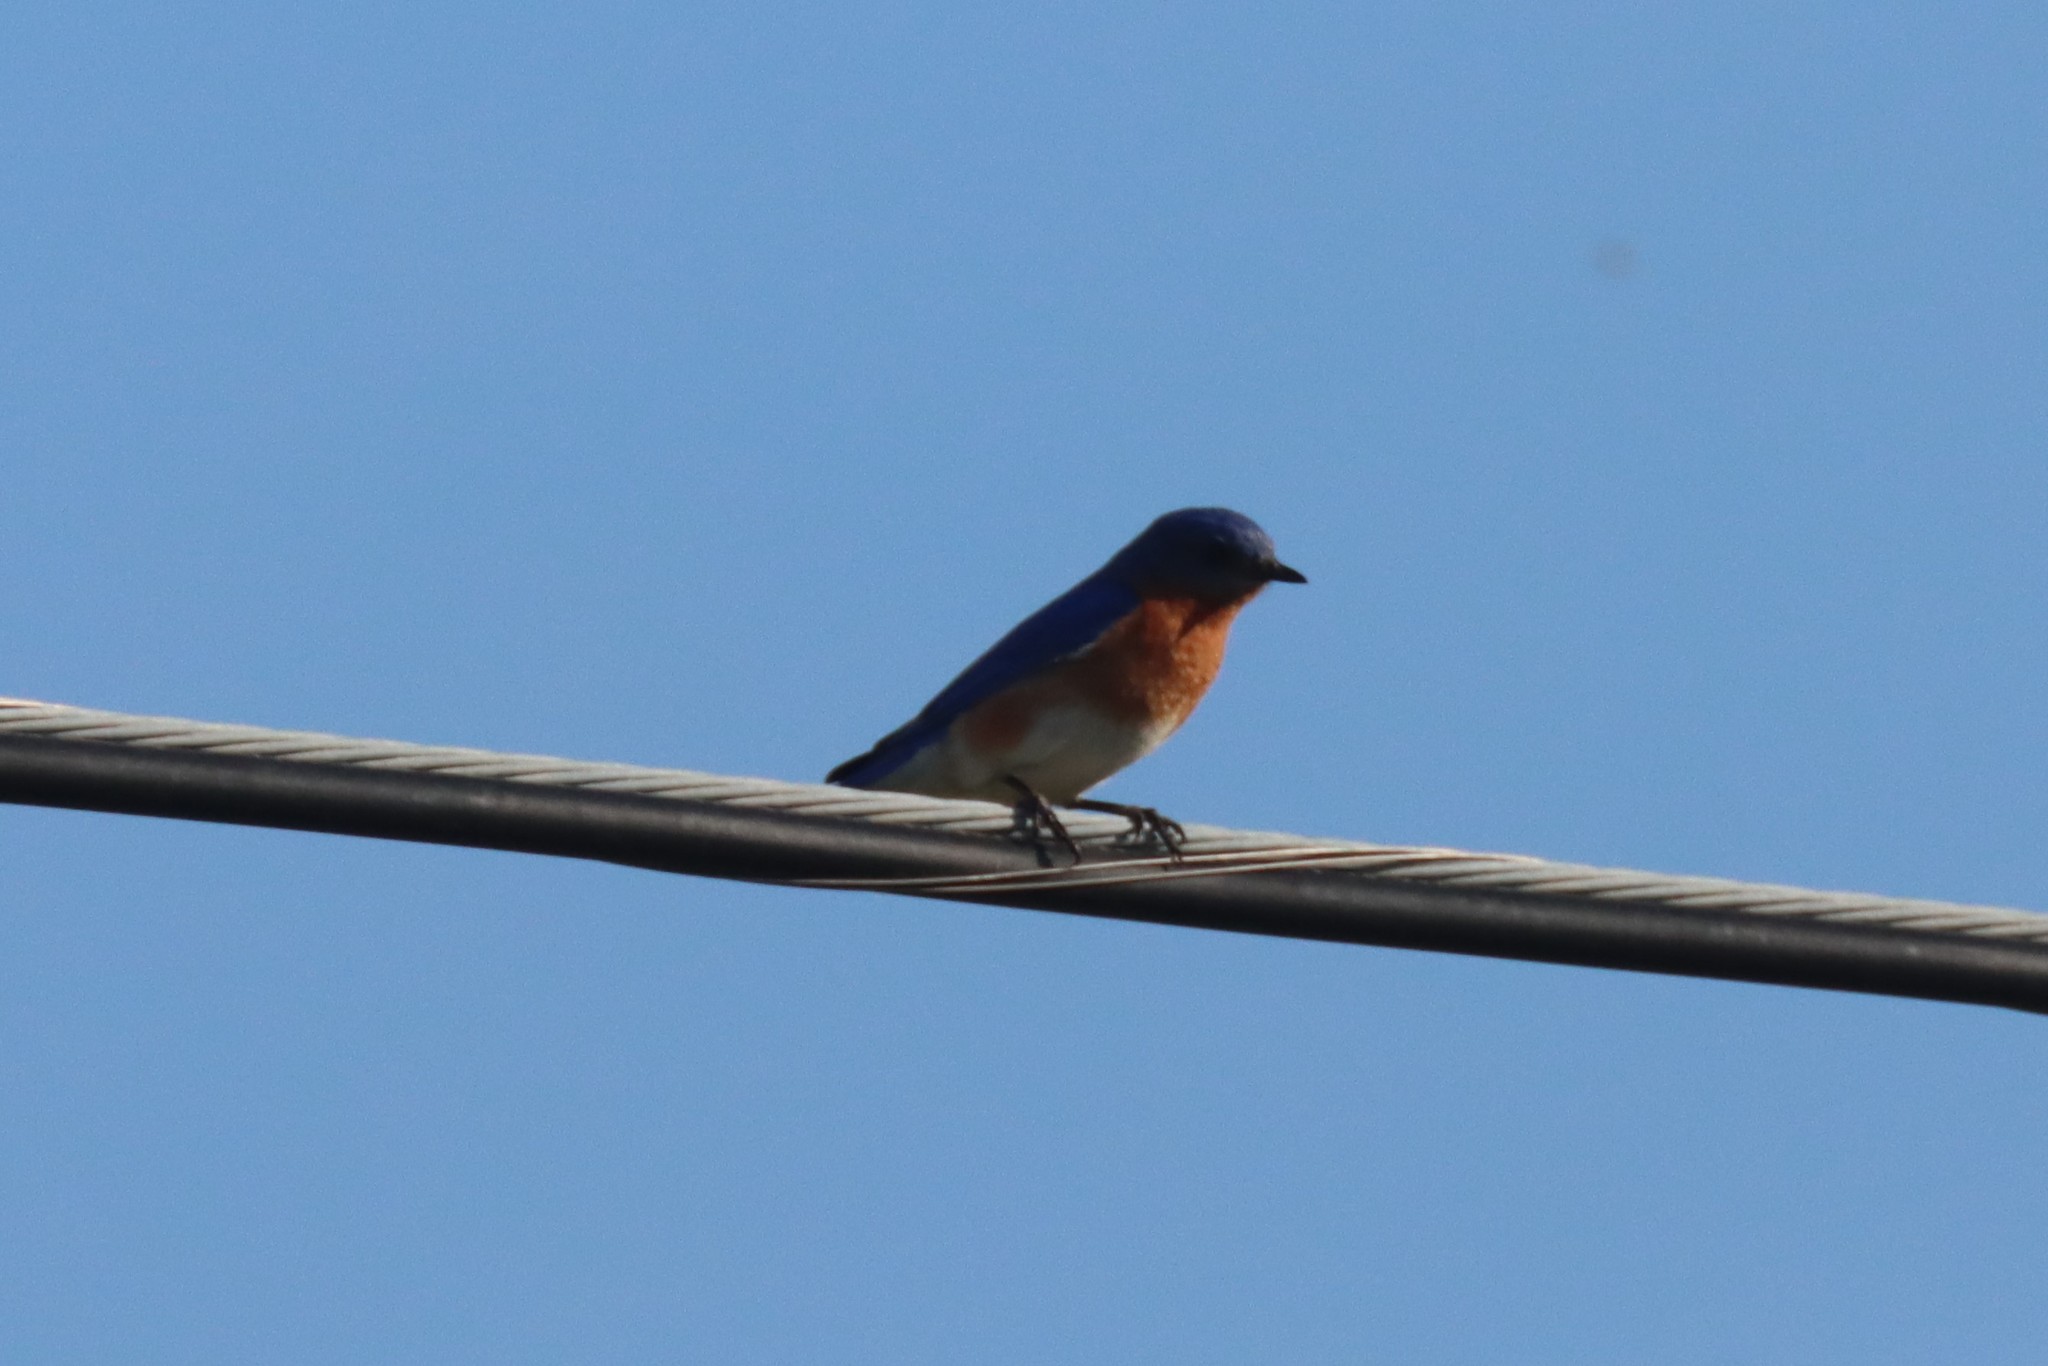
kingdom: Animalia
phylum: Chordata
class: Aves
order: Passeriformes
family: Turdidae
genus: Sialia
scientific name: Sialia sialis
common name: Eastern bluebird
